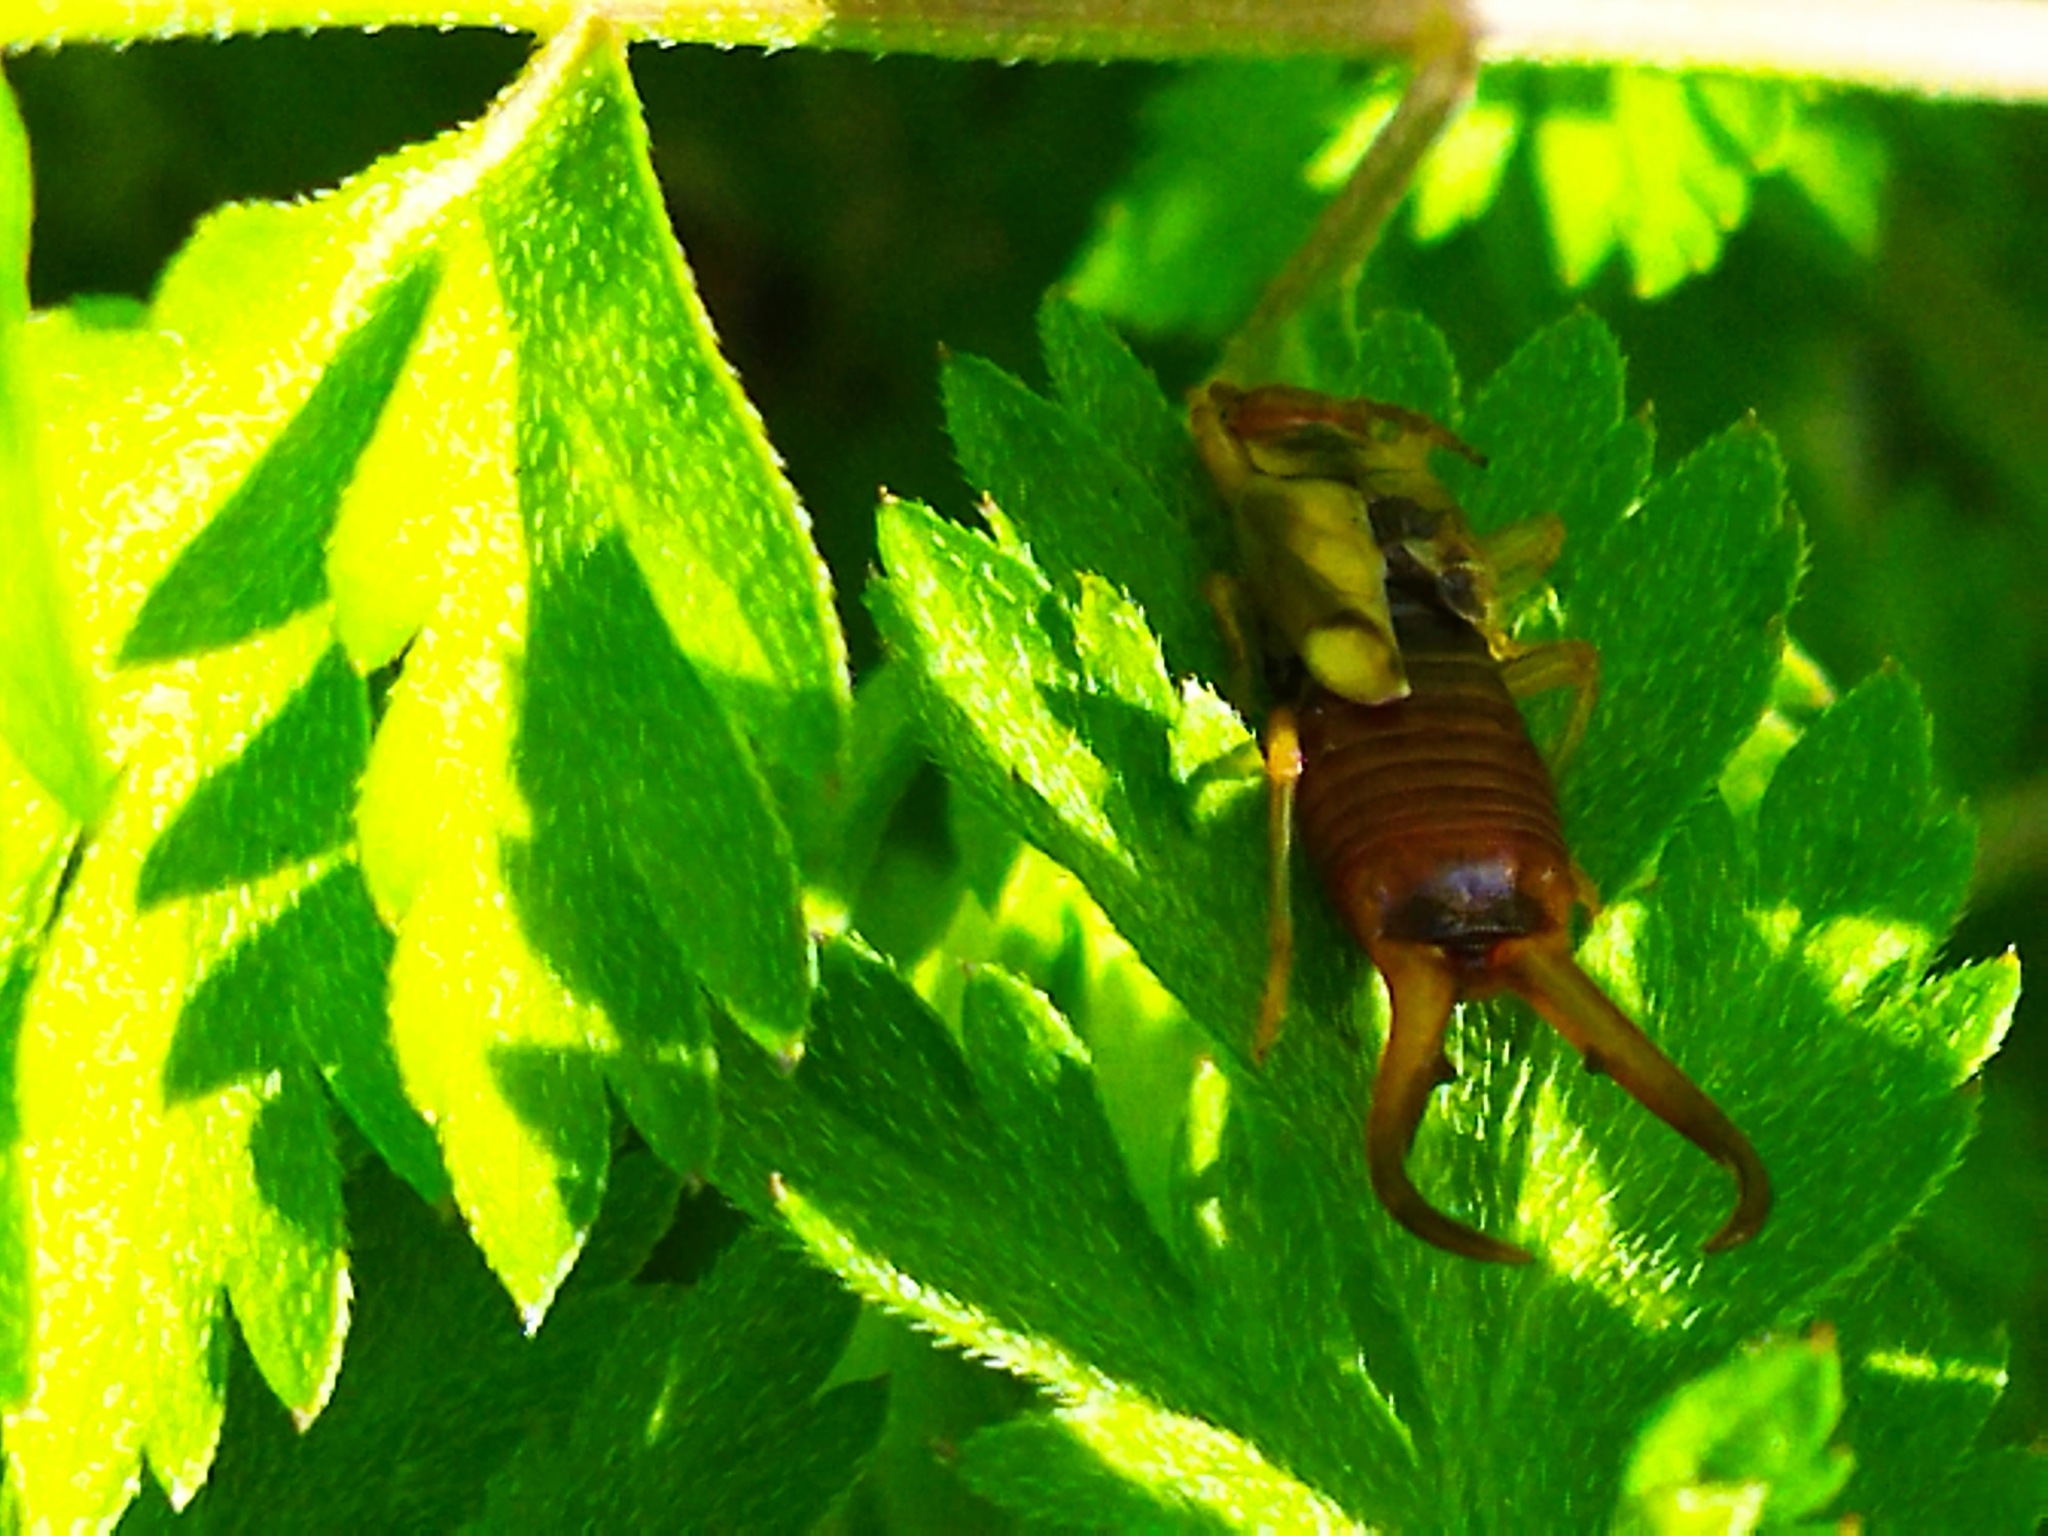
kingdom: Animalia
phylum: Arthropoda
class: Insecta
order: Dermaptera
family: Forficulidae
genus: Forficula
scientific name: Forficula
